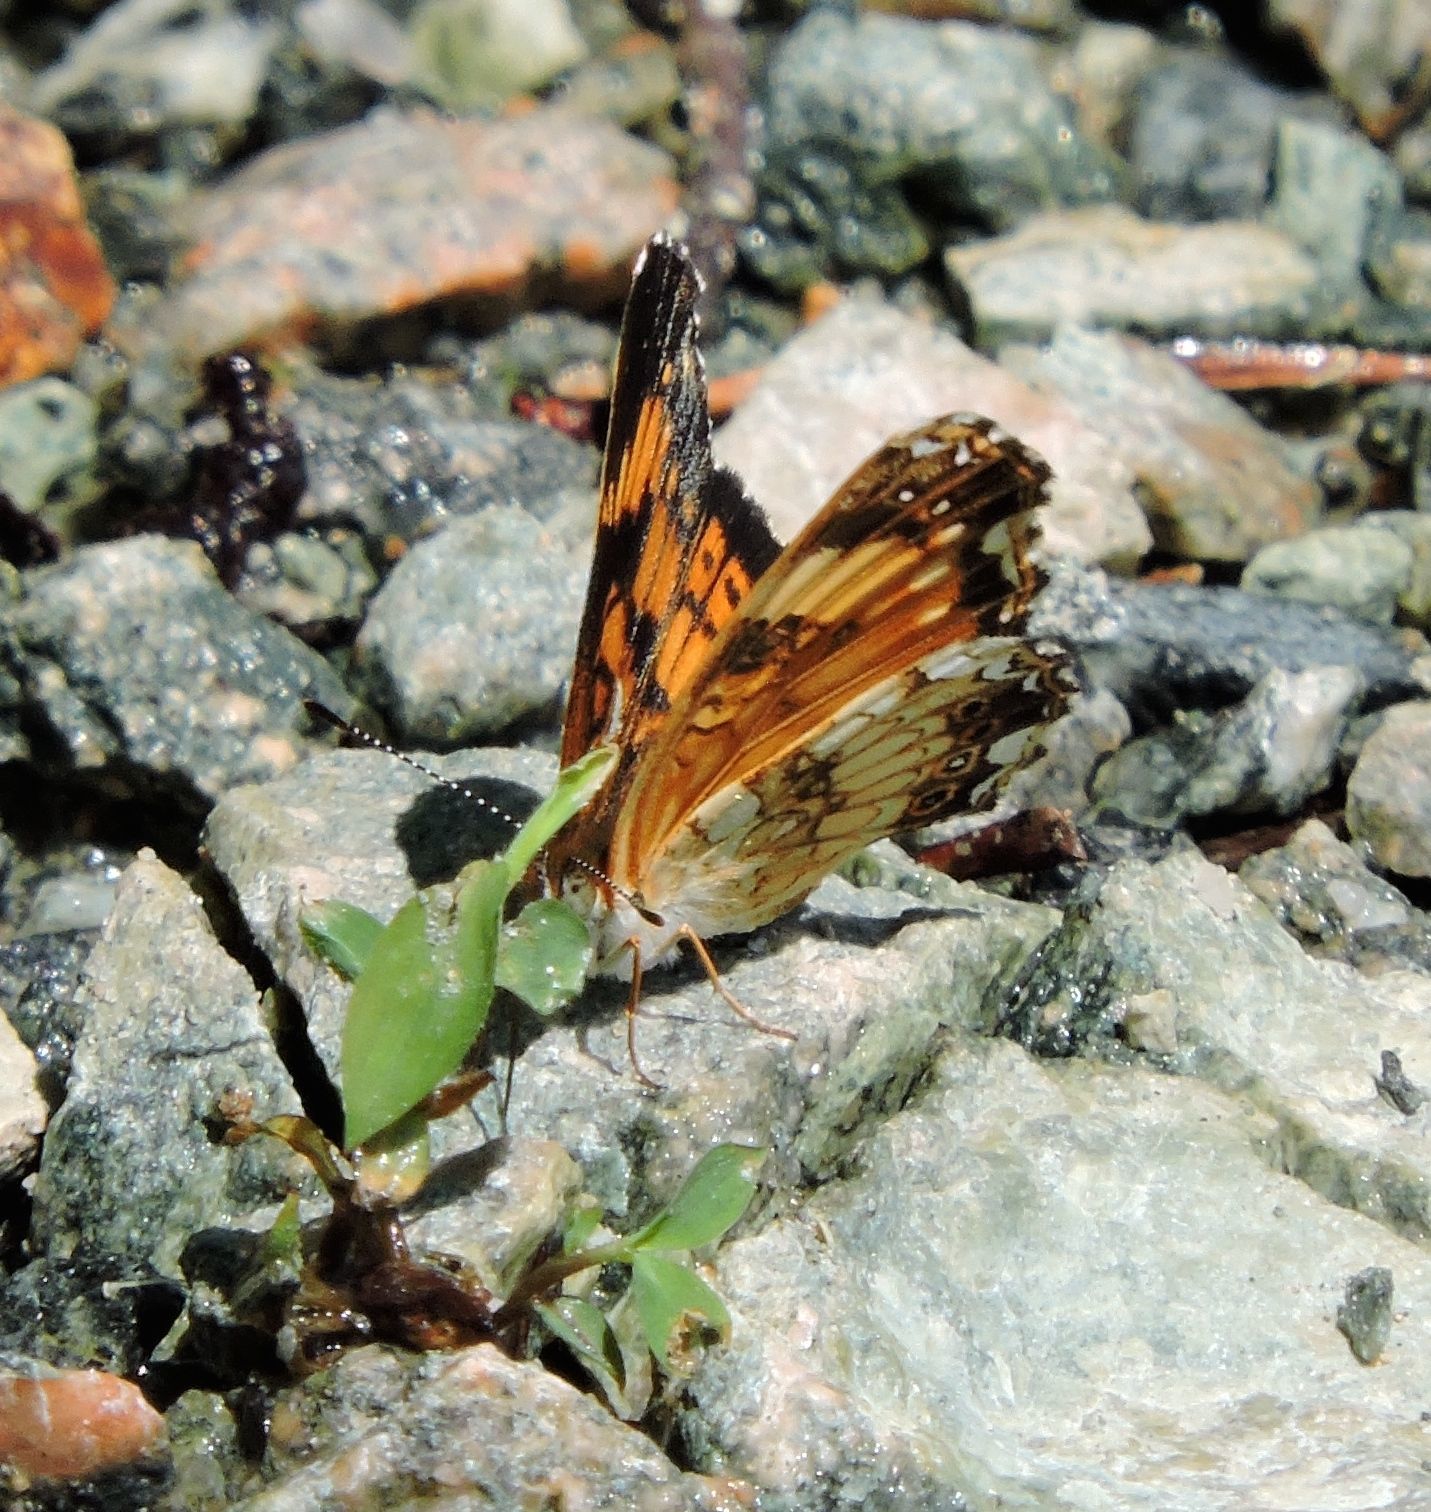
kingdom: Animalia
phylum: Arthropoda
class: Insecta
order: Lepidoptera
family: Nymphalidae
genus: Chlosyne
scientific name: Chlosyne nycteis
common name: Silvery checkerspot
